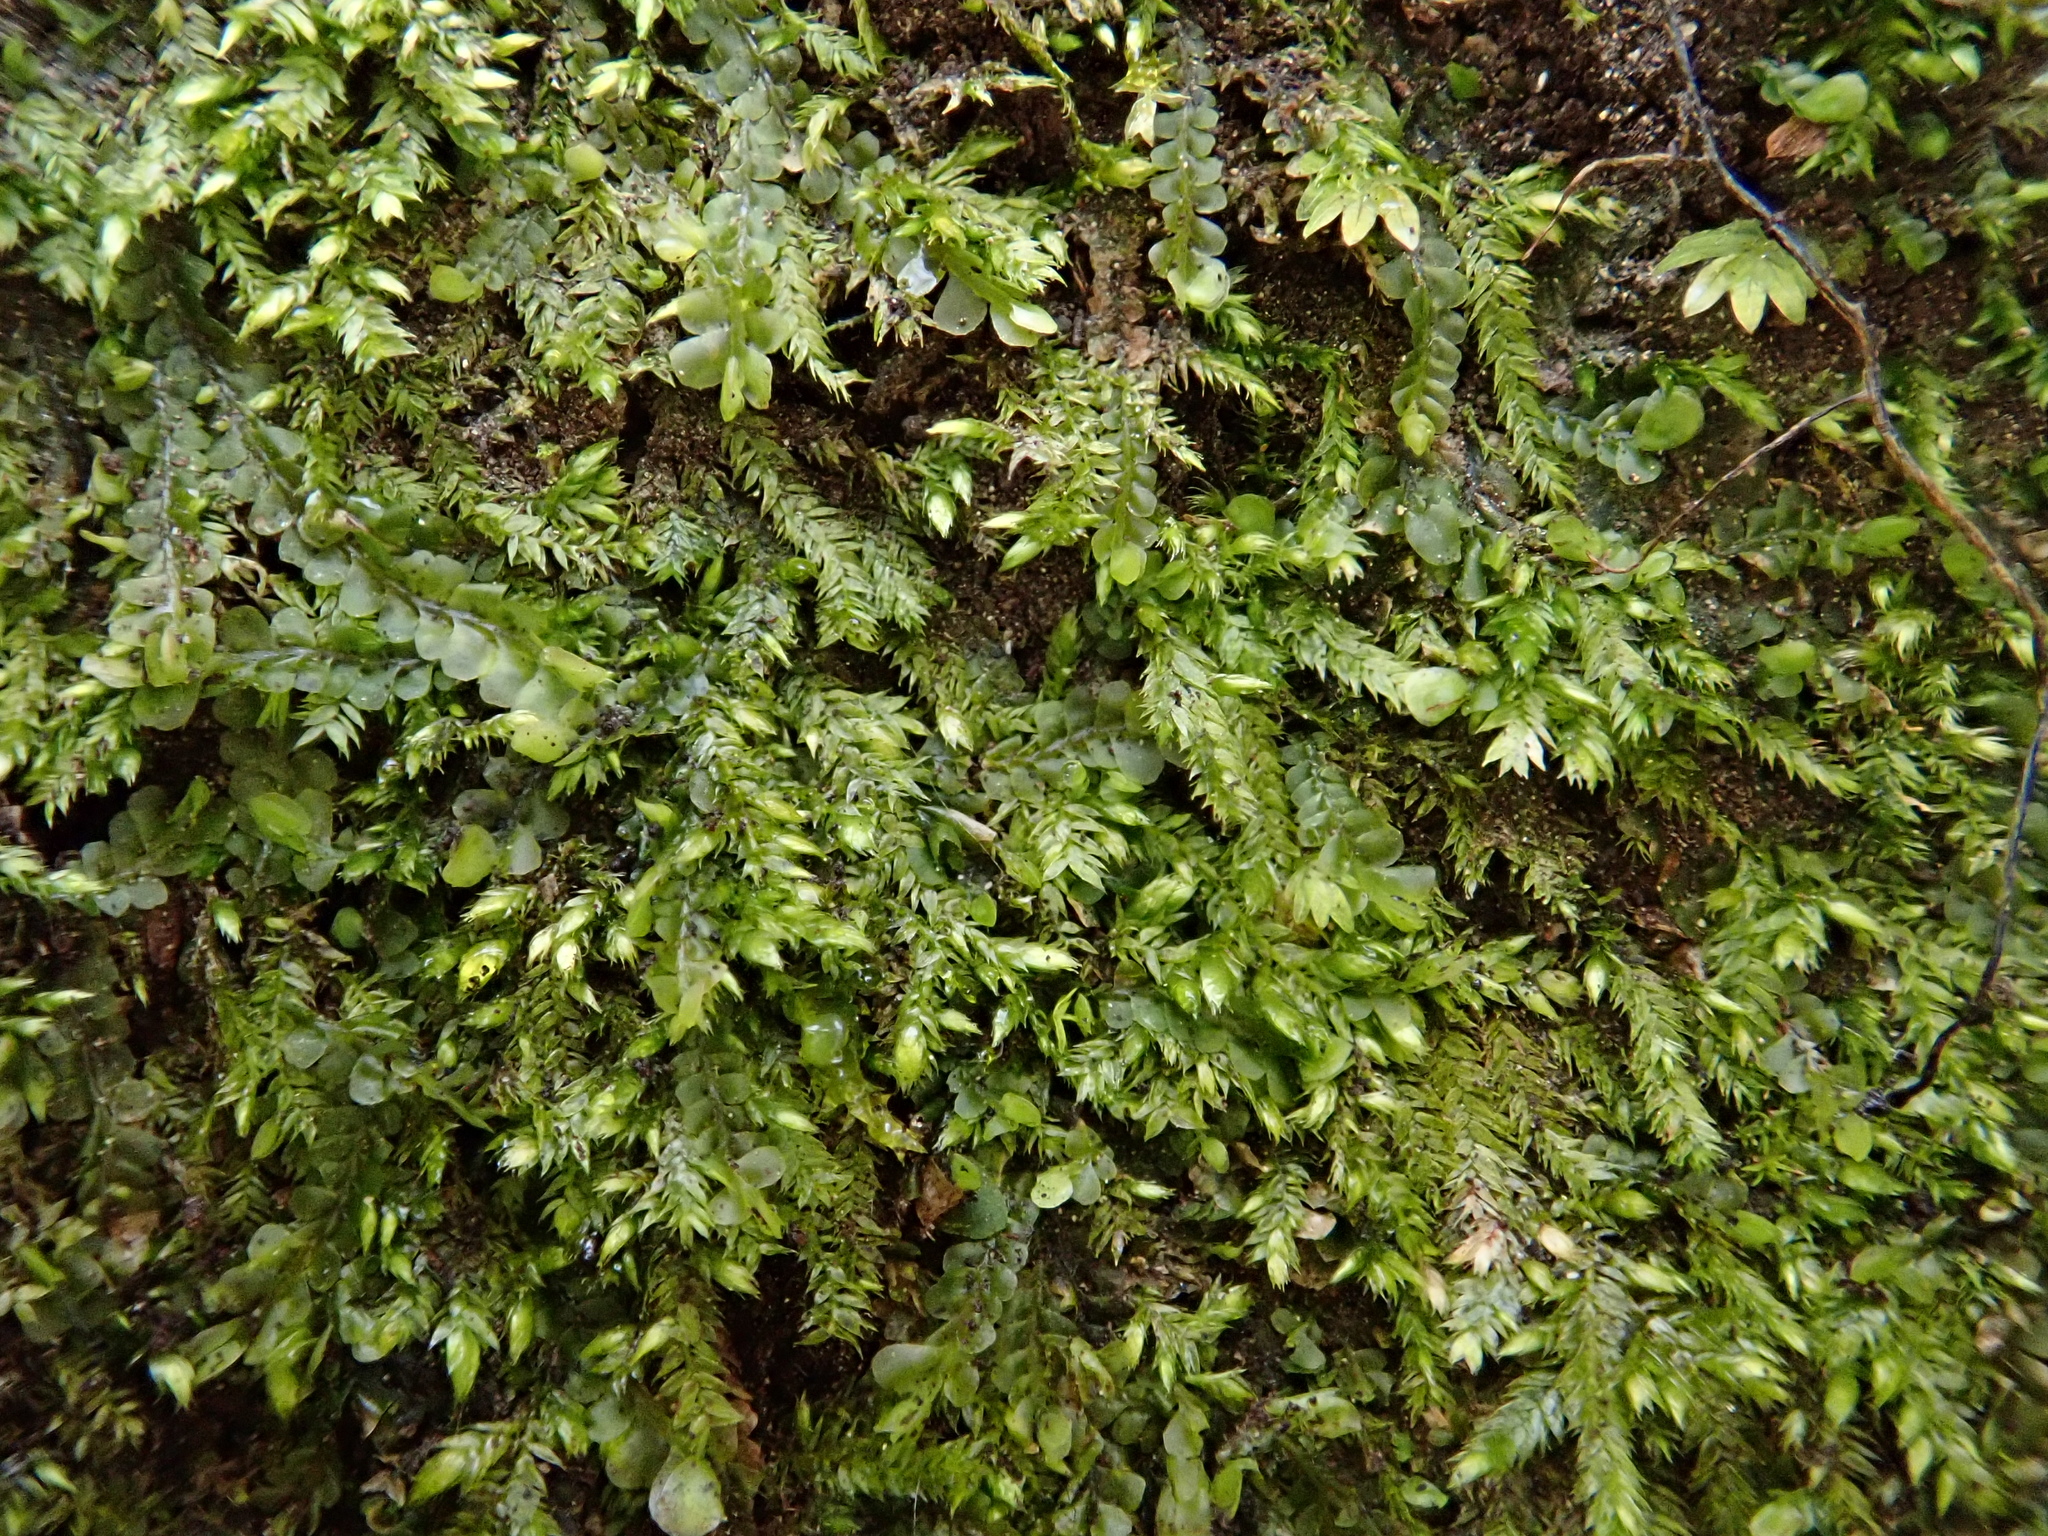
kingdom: Plantae
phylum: Bryophyta
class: Bryopsida
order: Hypnales
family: Taxiphyllaceae
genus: Taxiphyllum
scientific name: Taxiphyllum wissgrillii
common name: Depressed feather-moss
